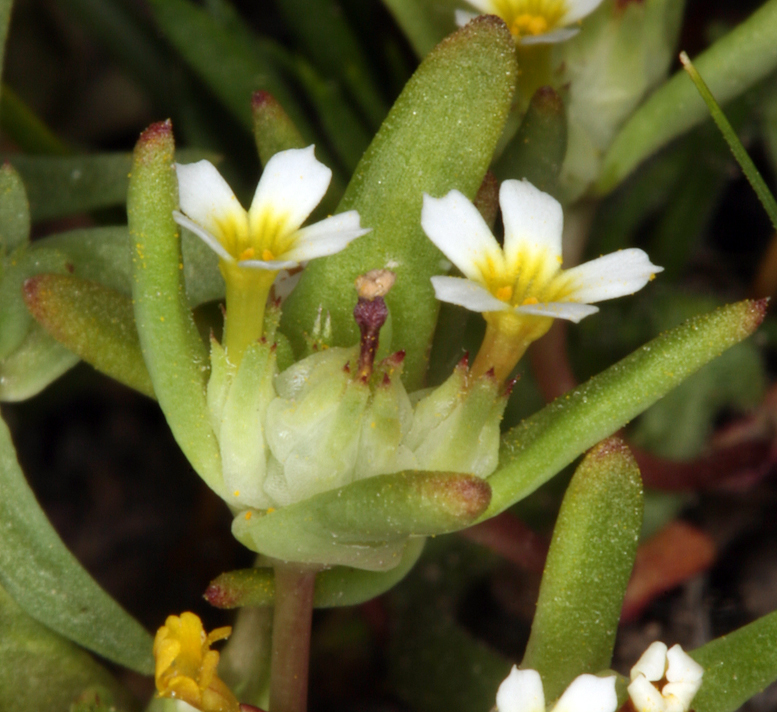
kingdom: Plantae
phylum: Tracheophyta
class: Magnoliopsida
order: Ericales
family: Polemoniaceae
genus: Gymnosteris
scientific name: Gymnosteris parvula
